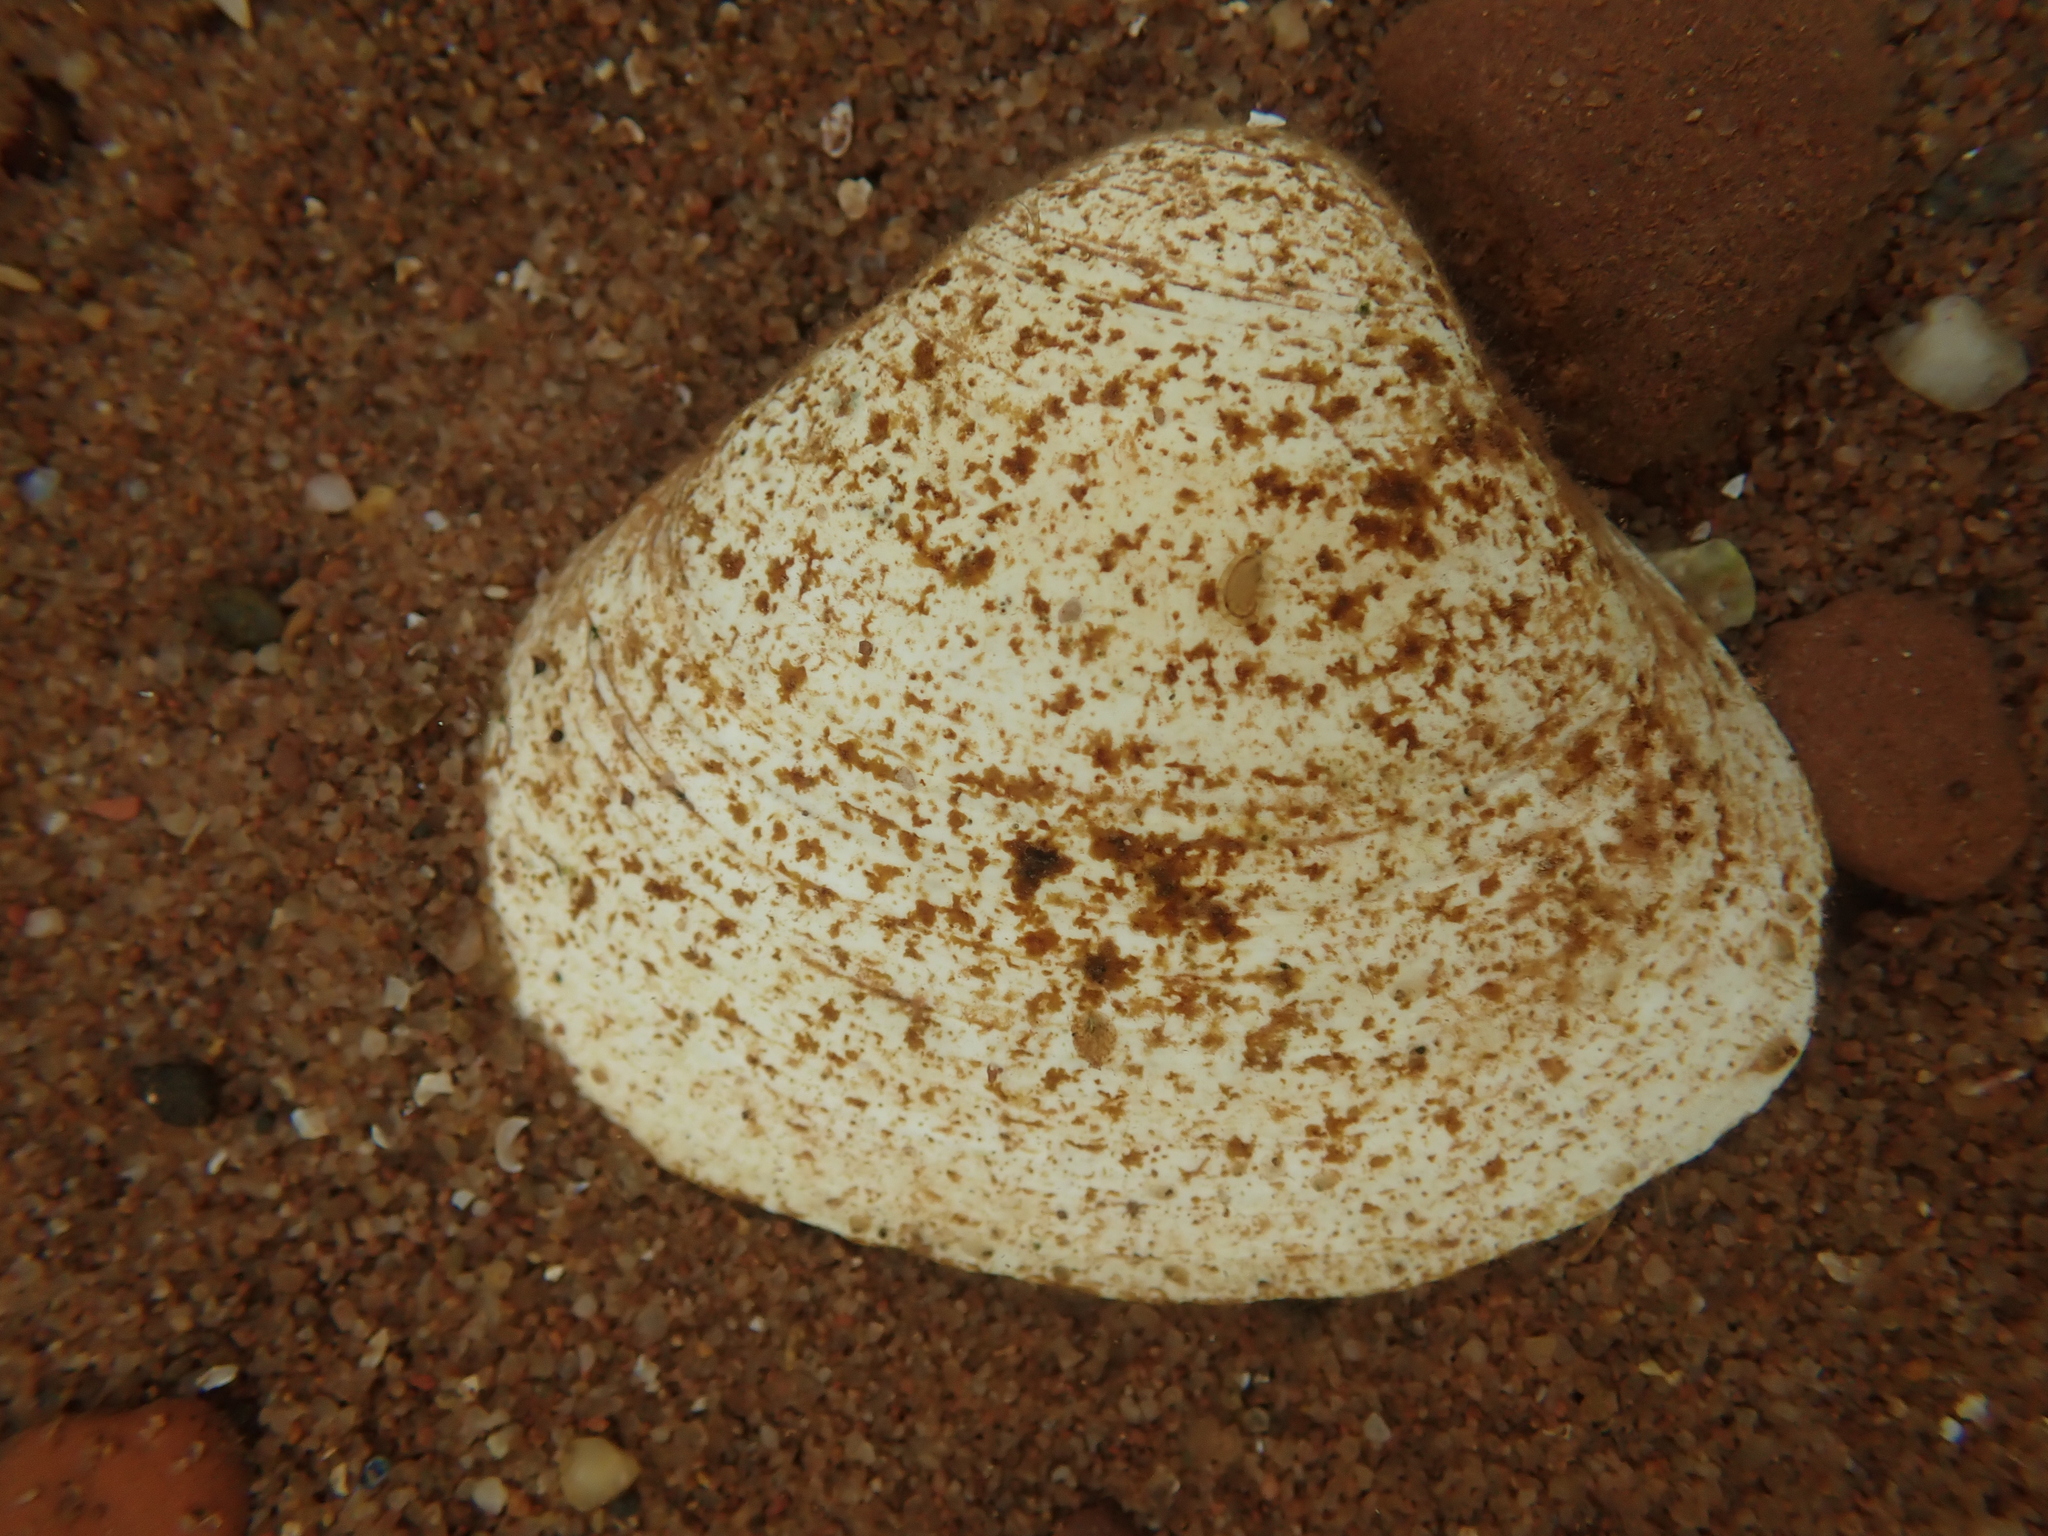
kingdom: Animalia
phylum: Mollusca
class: Bivalvia
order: Venerida
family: Mactridae
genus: Spisula
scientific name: Spisula solidissima
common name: Atlantic surf clam
